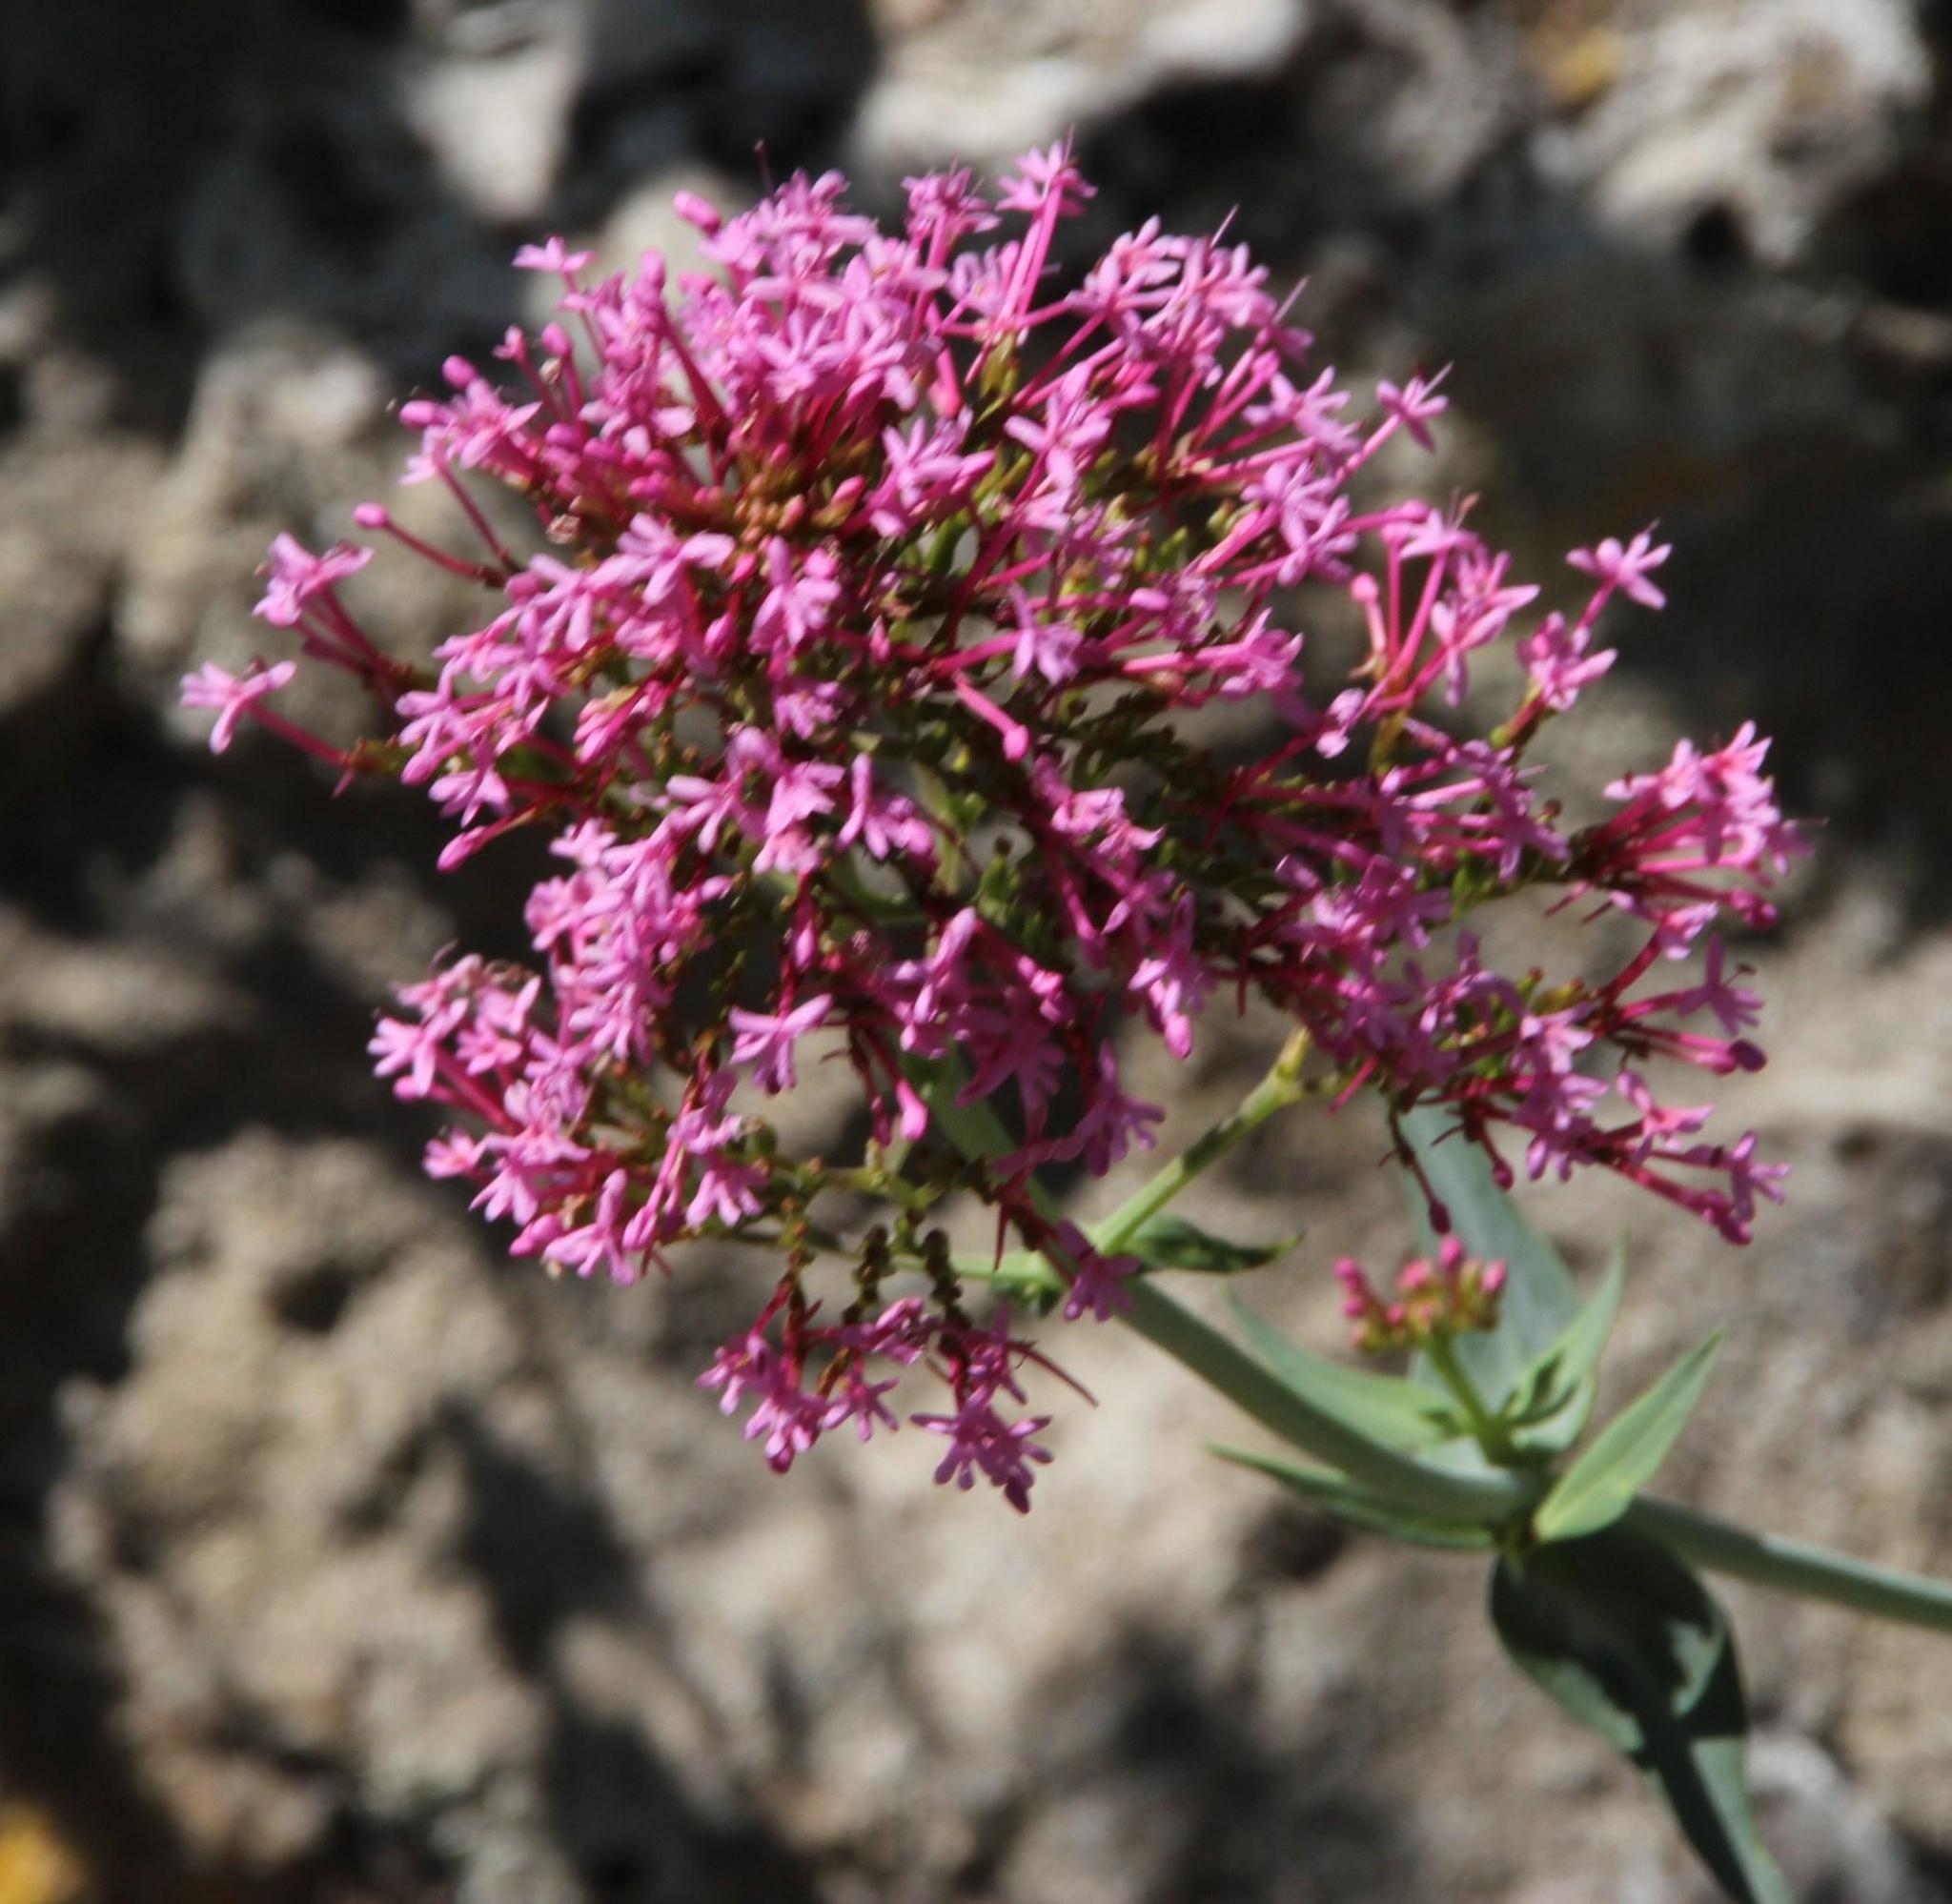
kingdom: Plantae
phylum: Tracheophyta
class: Magnoliopsida
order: Dipsacales
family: Caprifoliaceae
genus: Centranthus
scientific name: Centranthus ruber
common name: Red valerian
